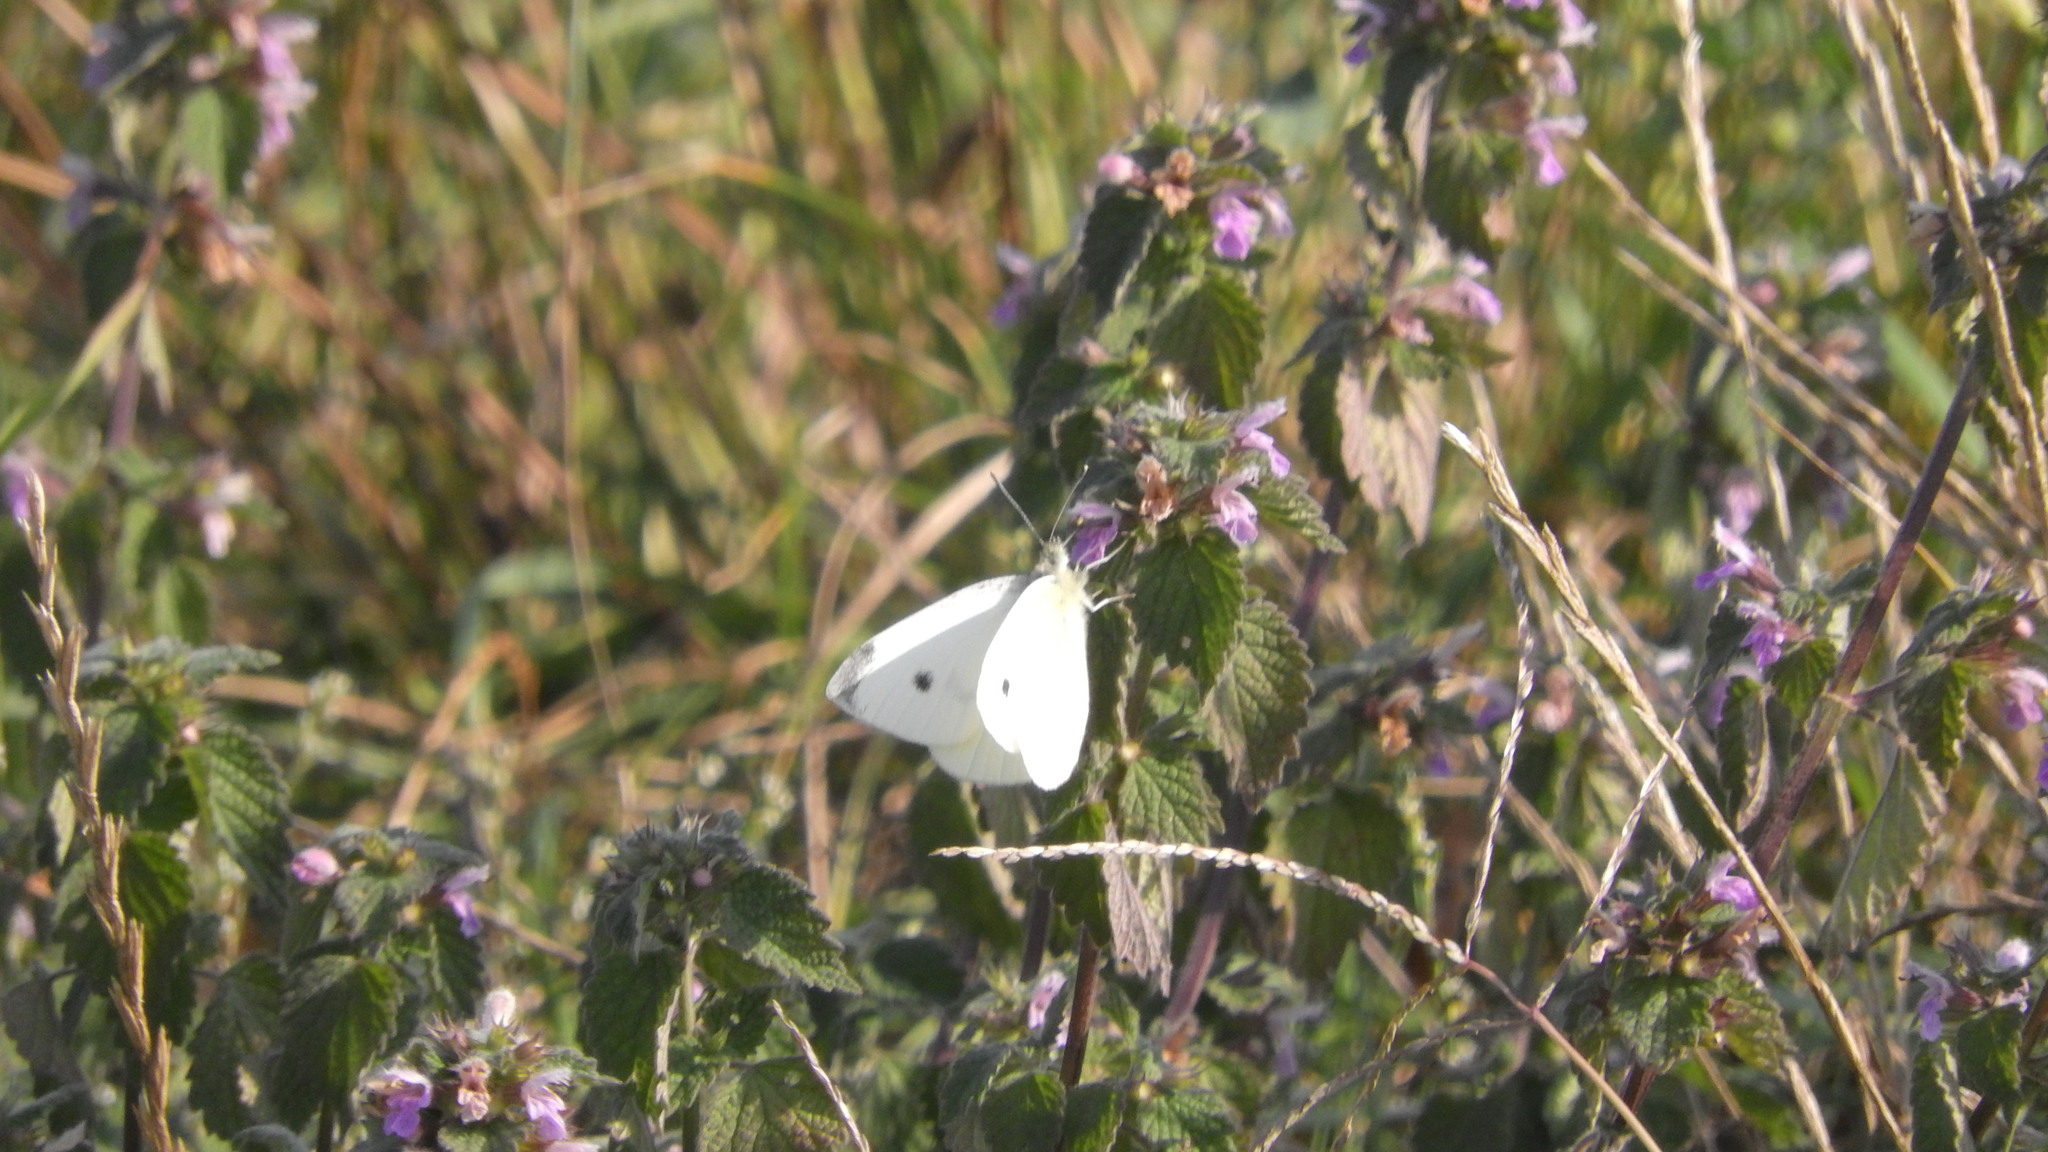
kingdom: Animalia
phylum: Arthropoda
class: Insecta
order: Lepidoptera
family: Pieridae
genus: Pieris
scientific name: Pieris rapae
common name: Small white
